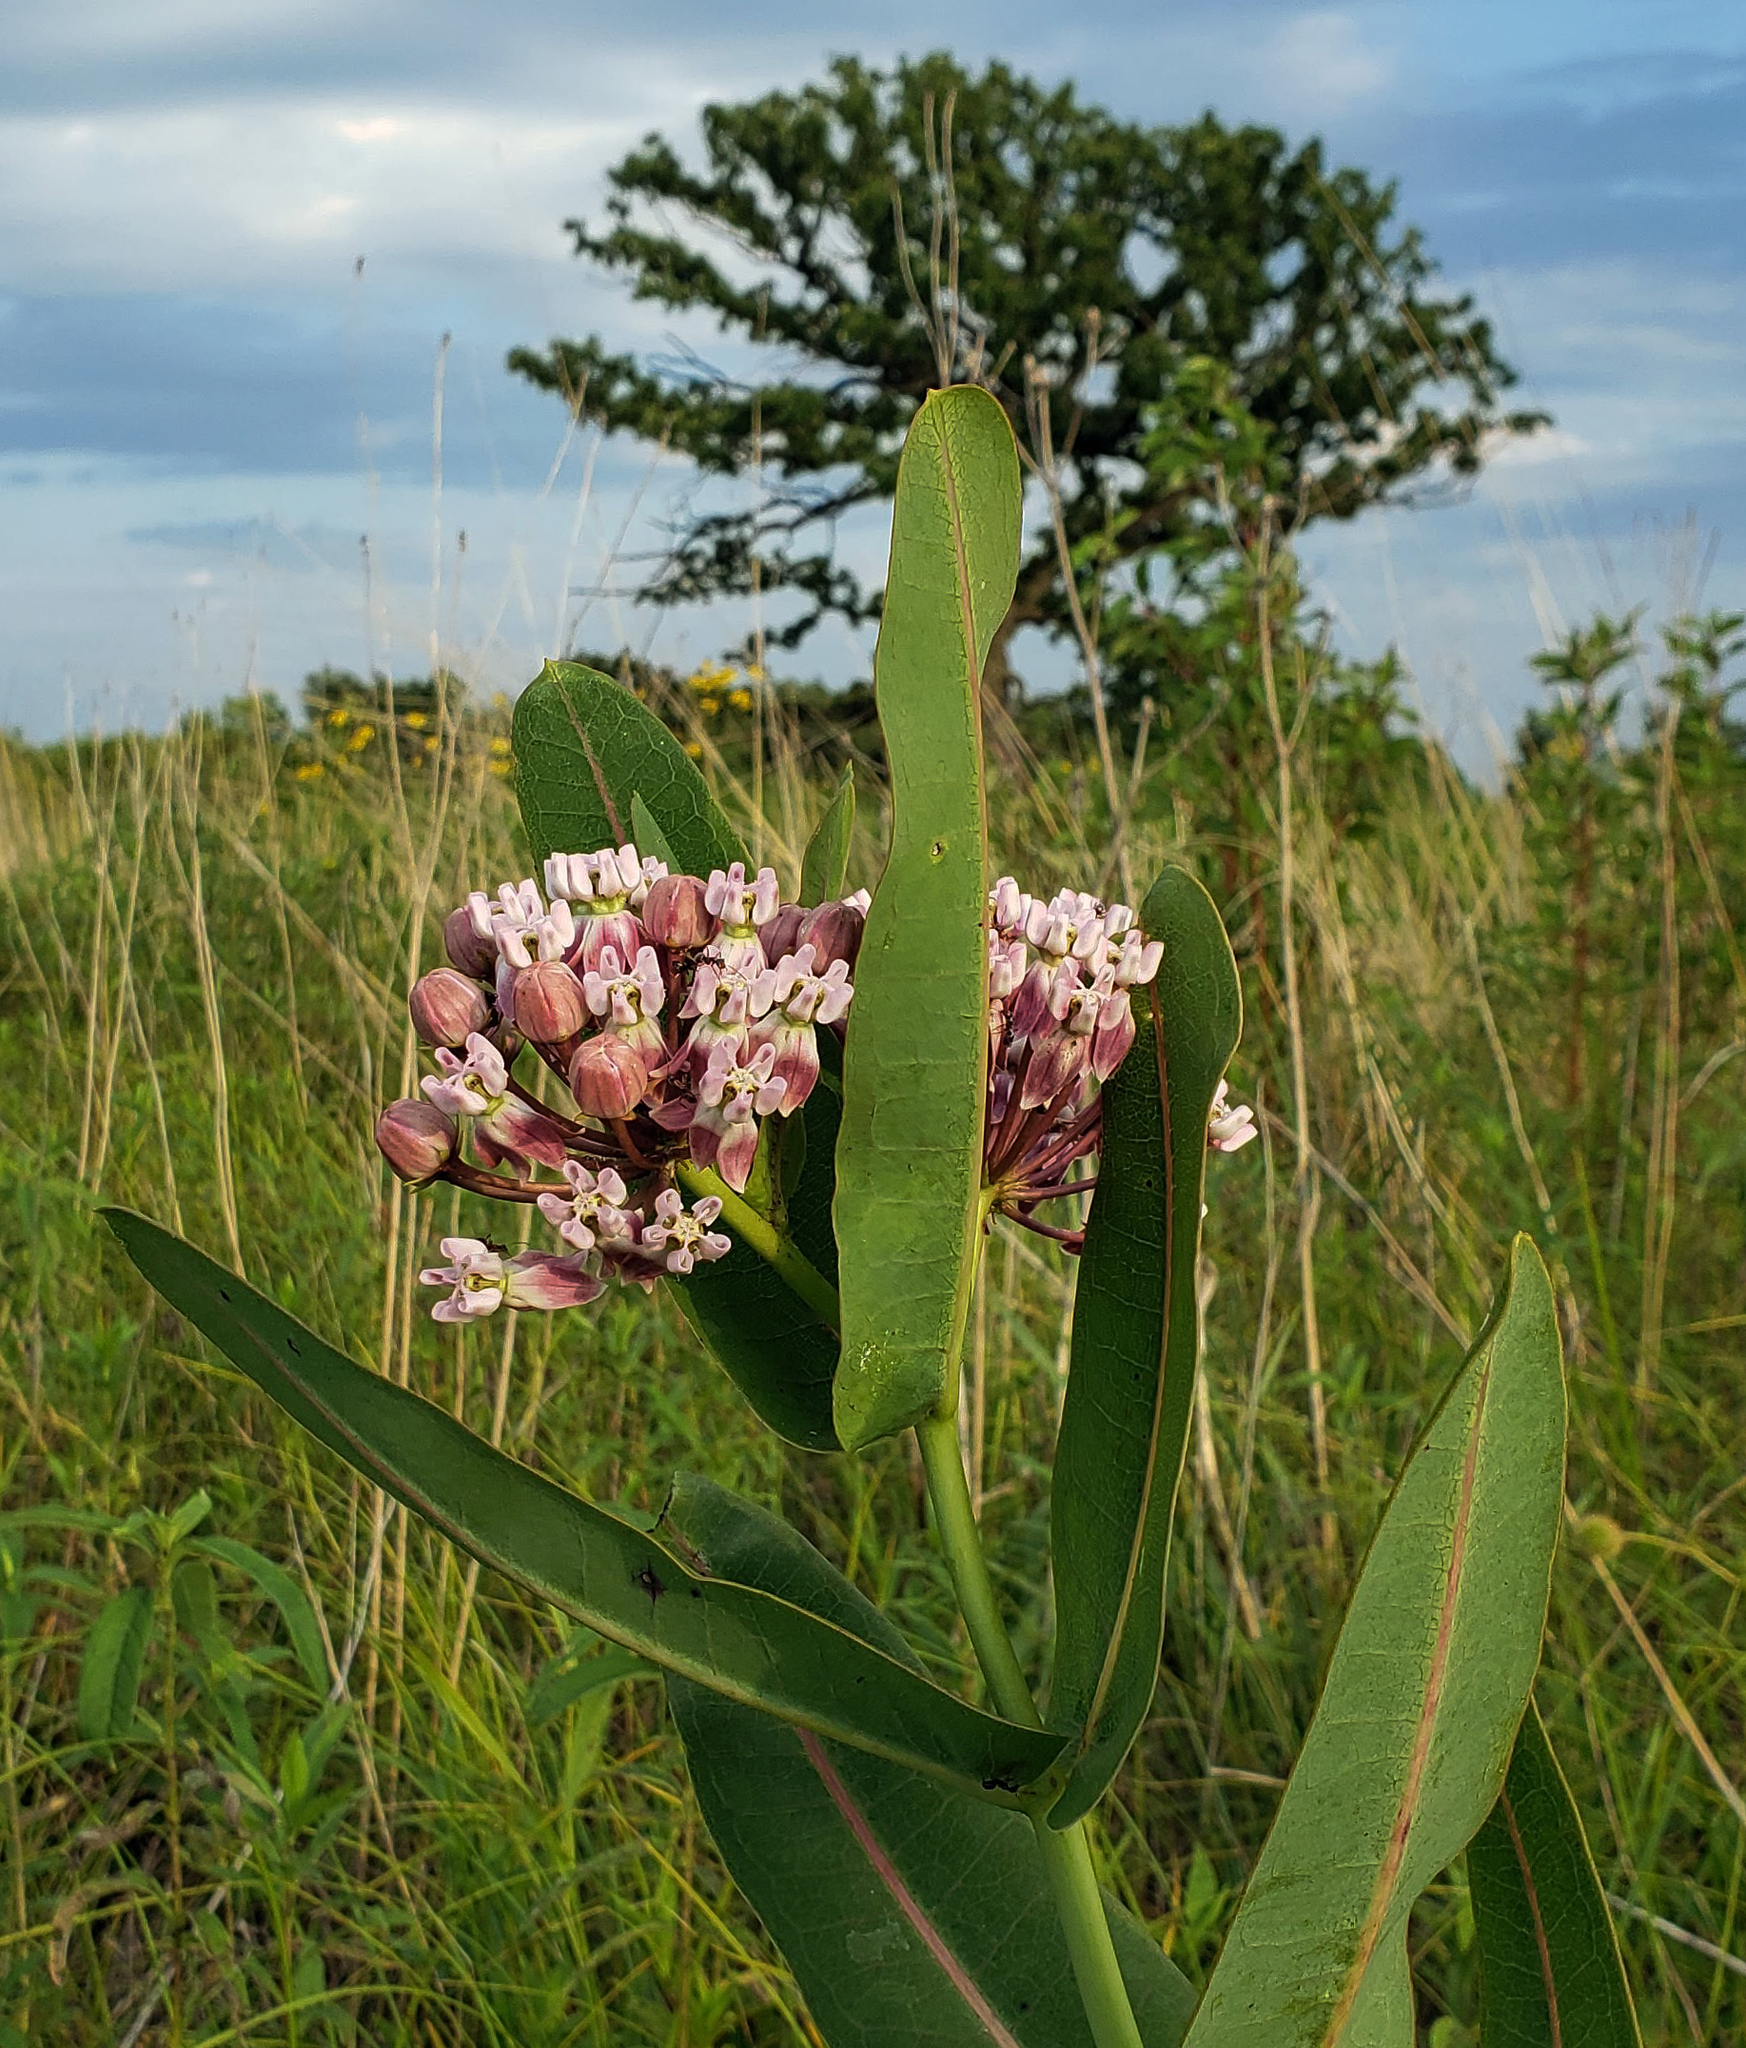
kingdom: Plantae
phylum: Tracheophyta
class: Magnoliopsida
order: Gentianales
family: Apocynaceae
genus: Asclepias
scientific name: Asclepias sullivantii
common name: Prairie milkweed
